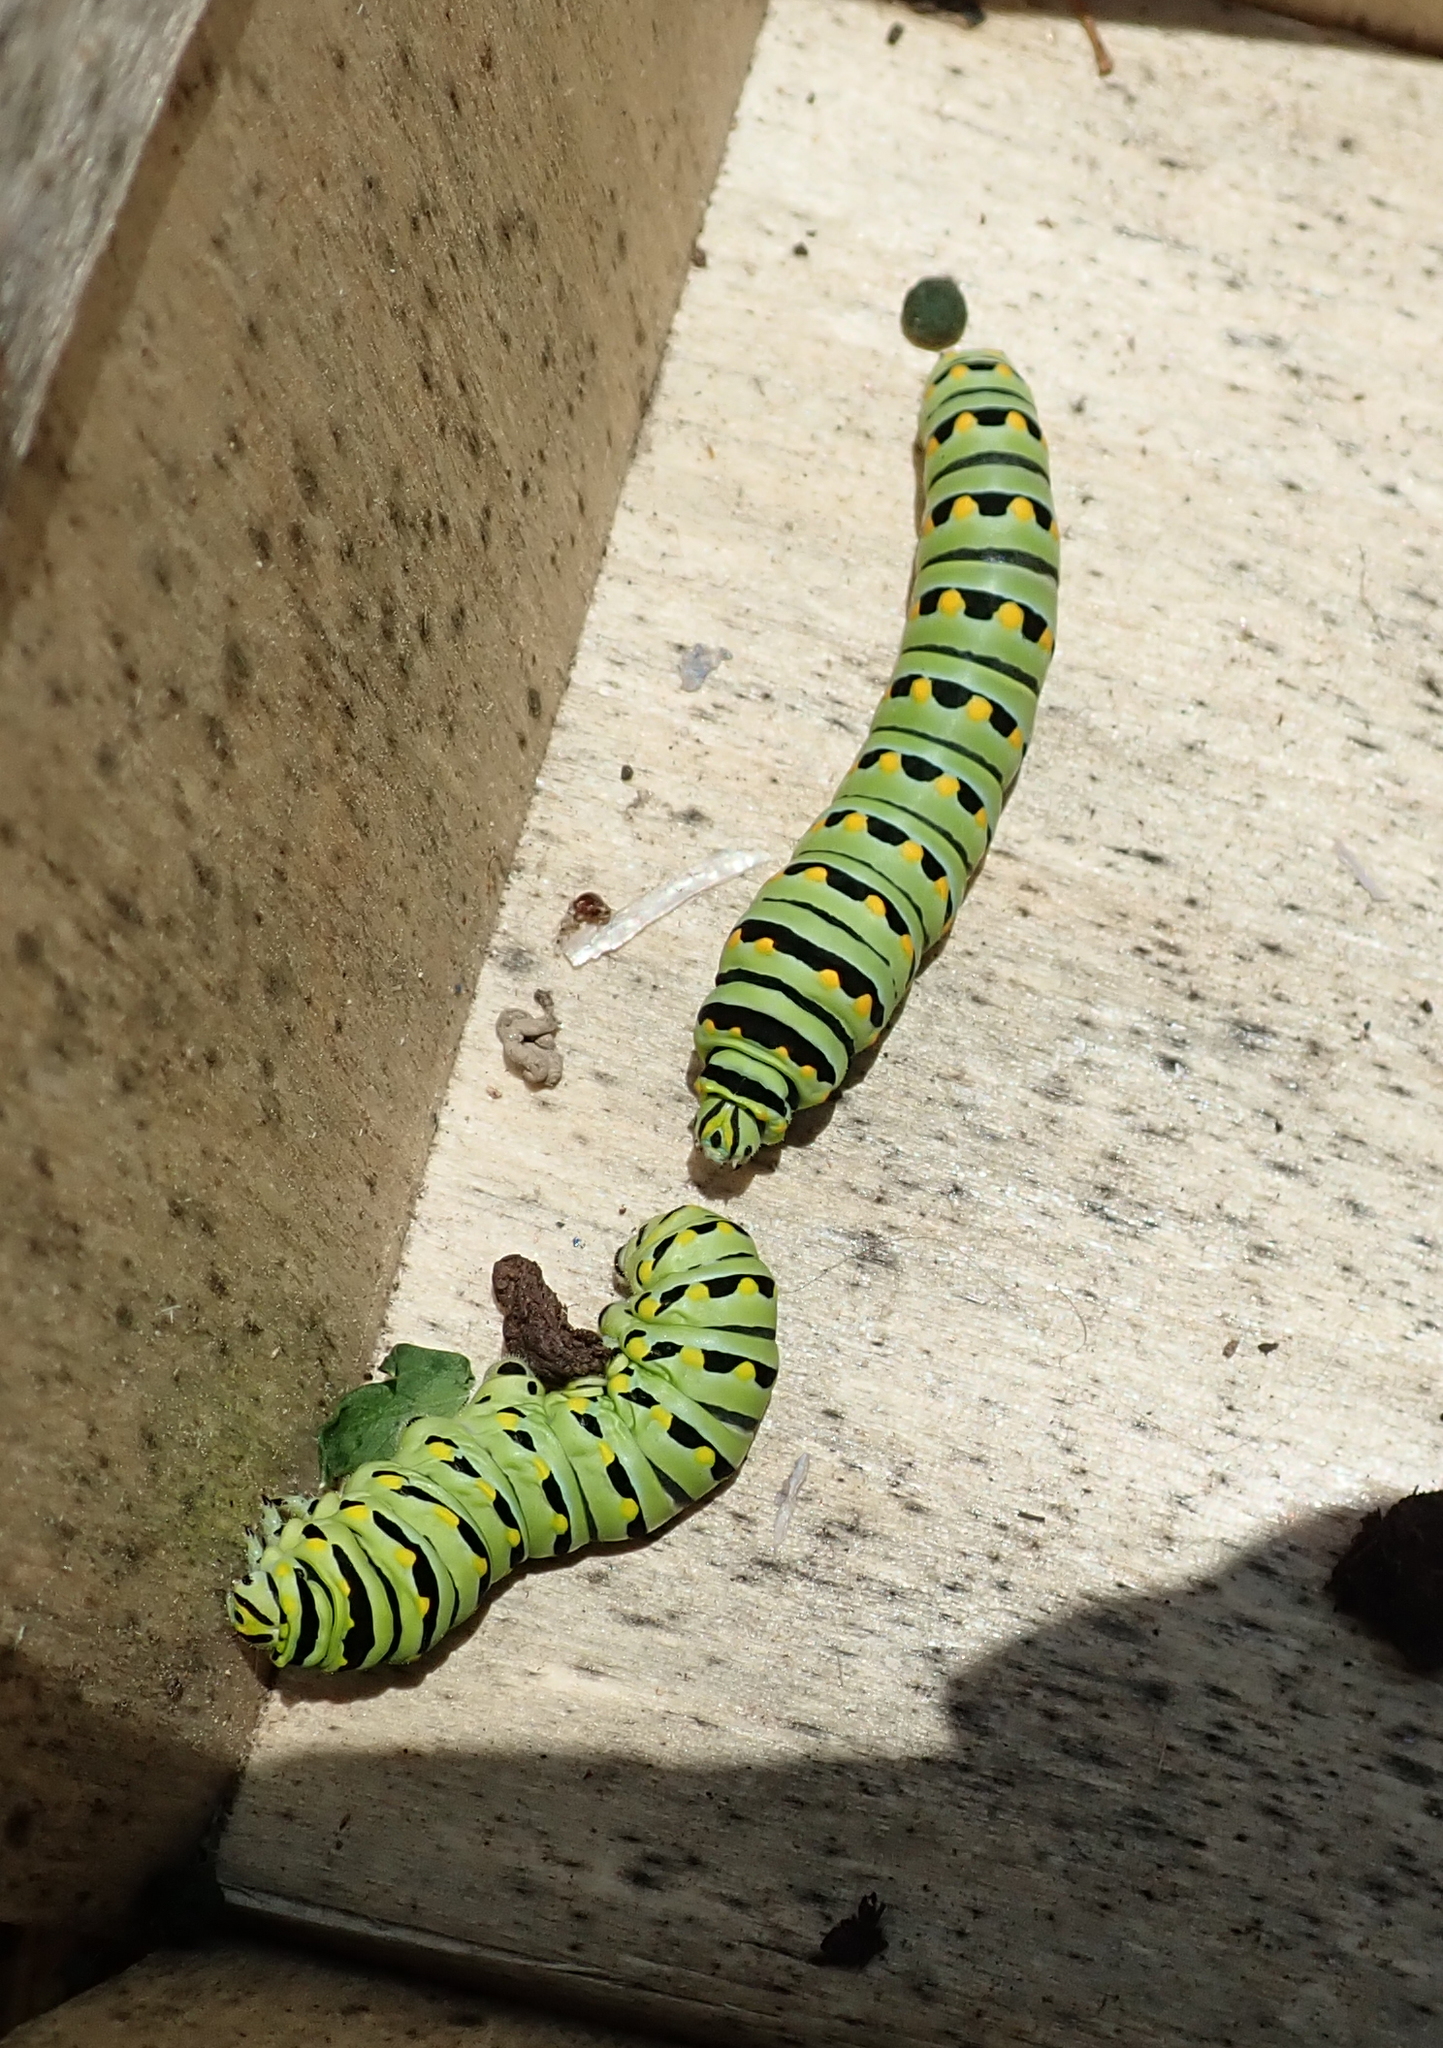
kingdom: Animalia
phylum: Arthropoda
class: Insecta
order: Lepidoptera
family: Papilionidae
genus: Papilio
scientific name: Papilio polyxenes
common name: Black swallowtail
